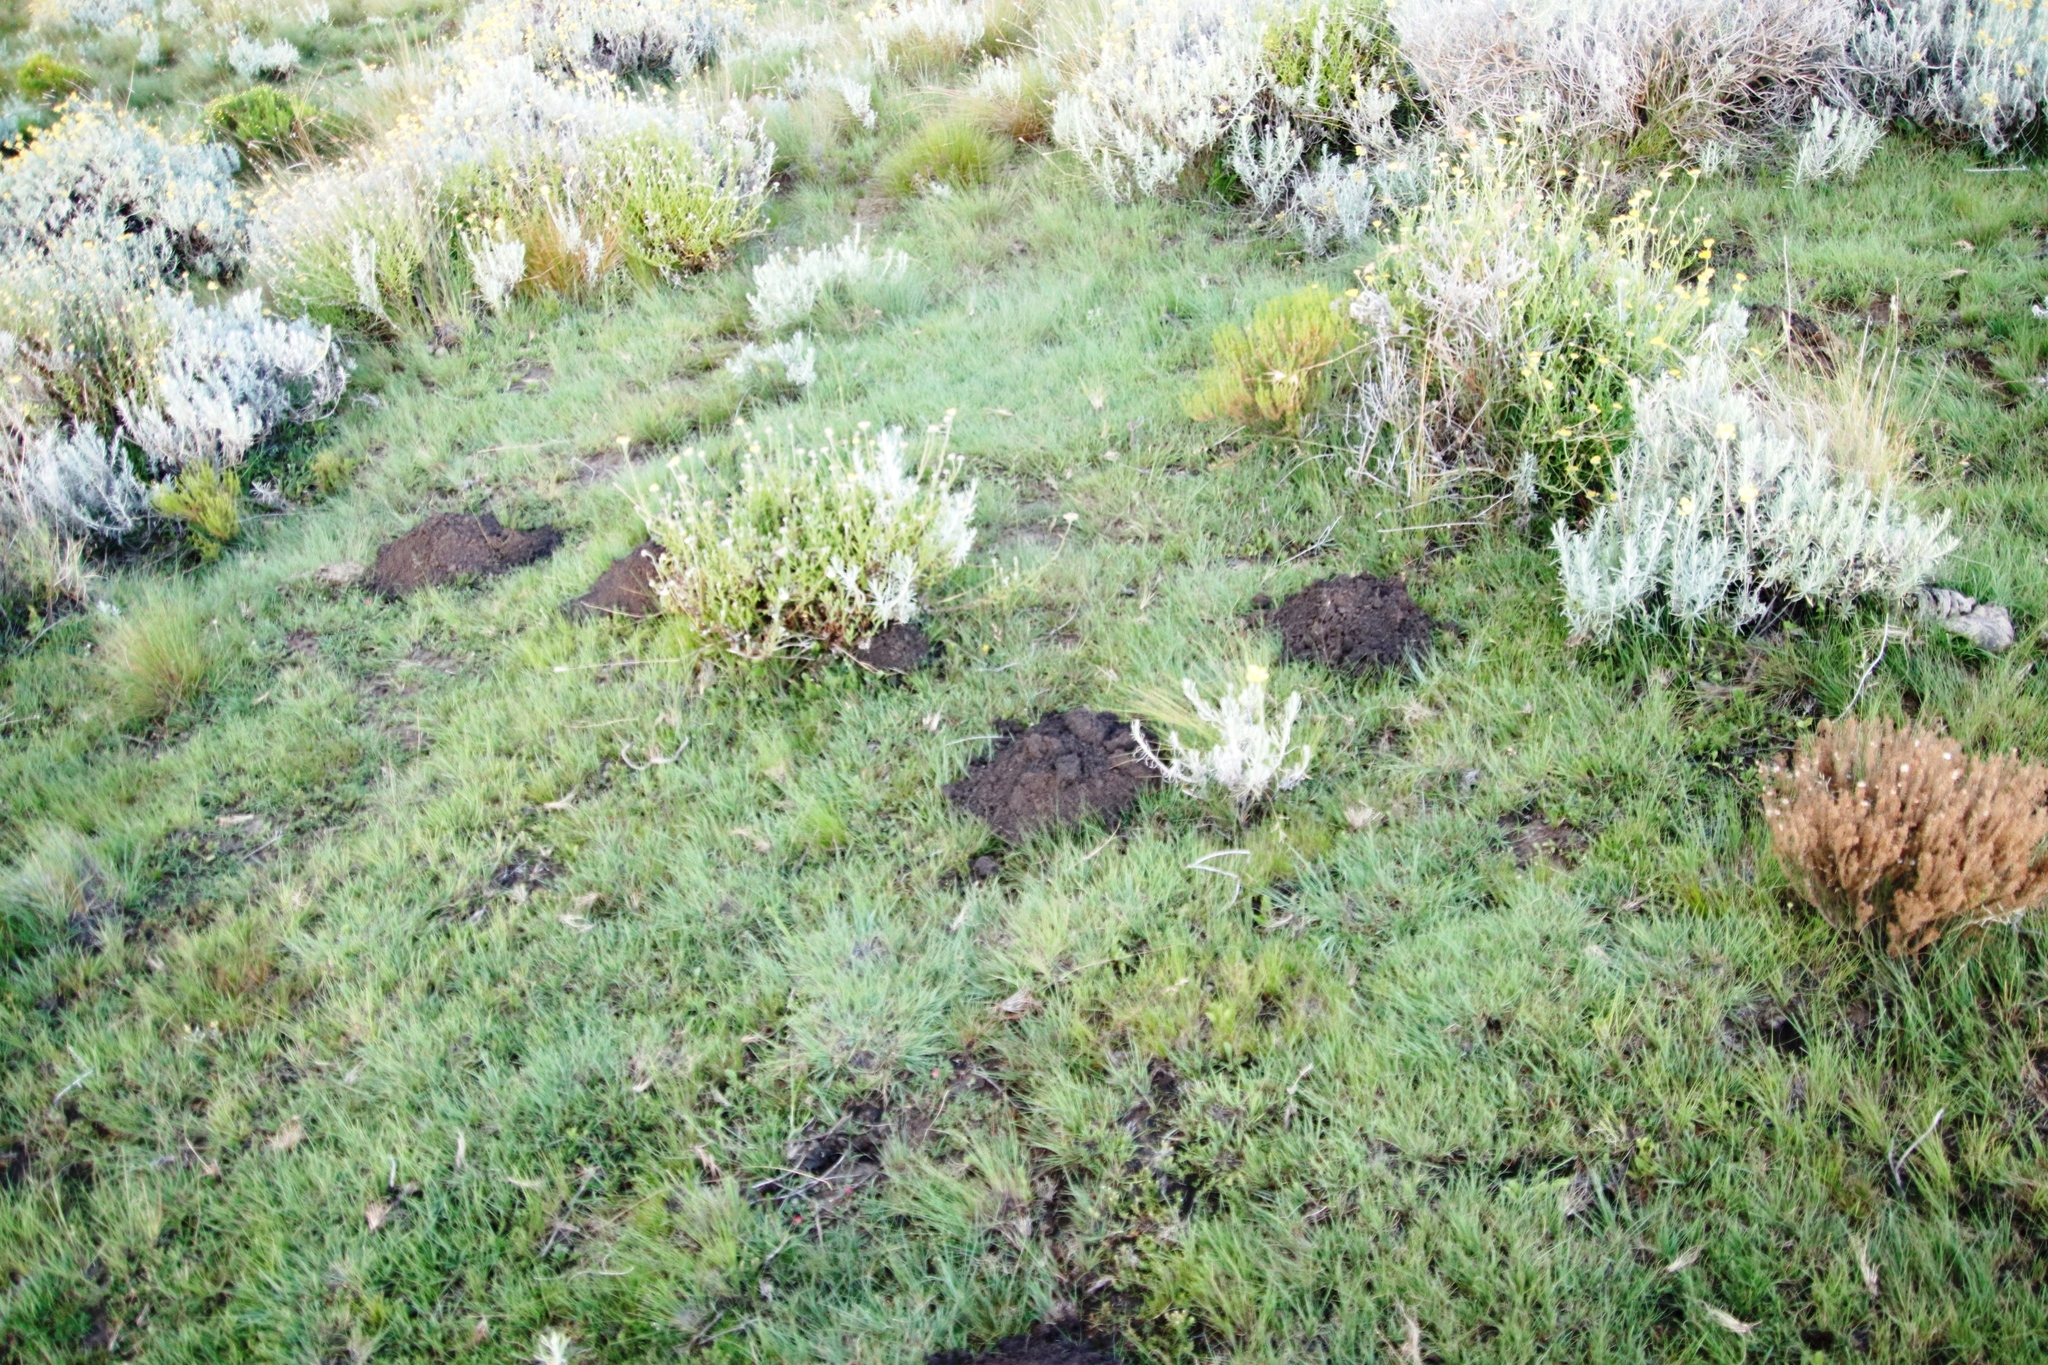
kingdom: Animalia
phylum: Chordata
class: Mammalia
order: Rodentia
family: Bathyergidae
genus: Cryptomys
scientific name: Cryptomys hottentotus
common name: Southern african mole-rat
